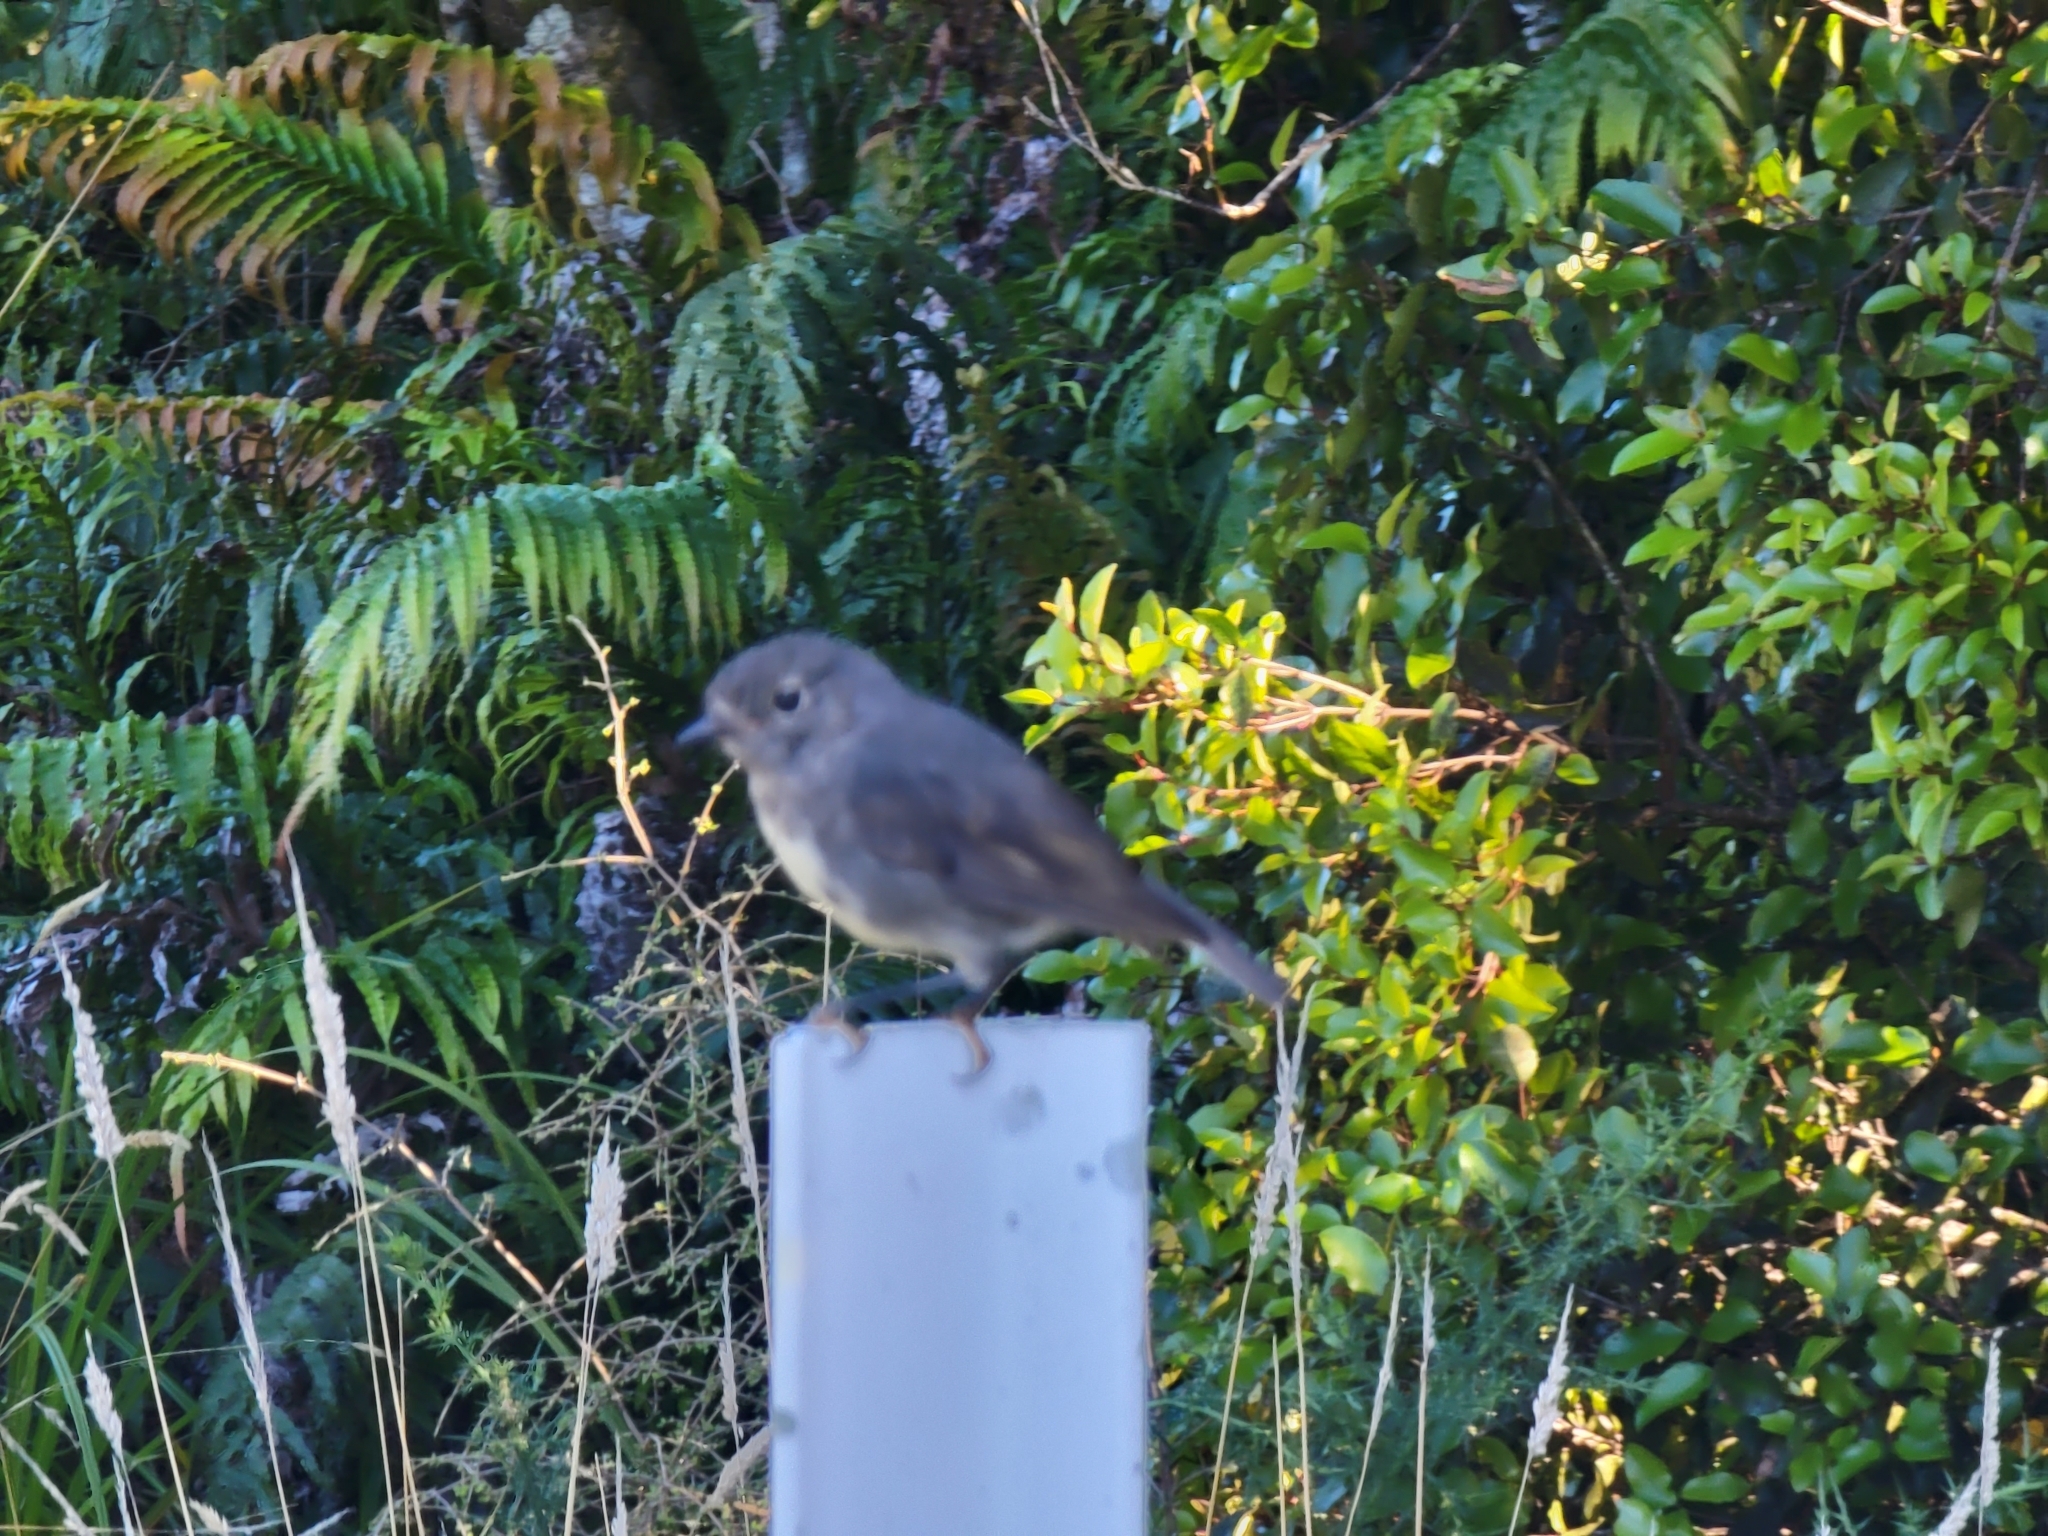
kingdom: Animalia
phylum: Chordata
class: Aves
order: Passeriformes
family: Petroicidae
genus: Petroica
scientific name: Petroica australis
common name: New zealand robin
